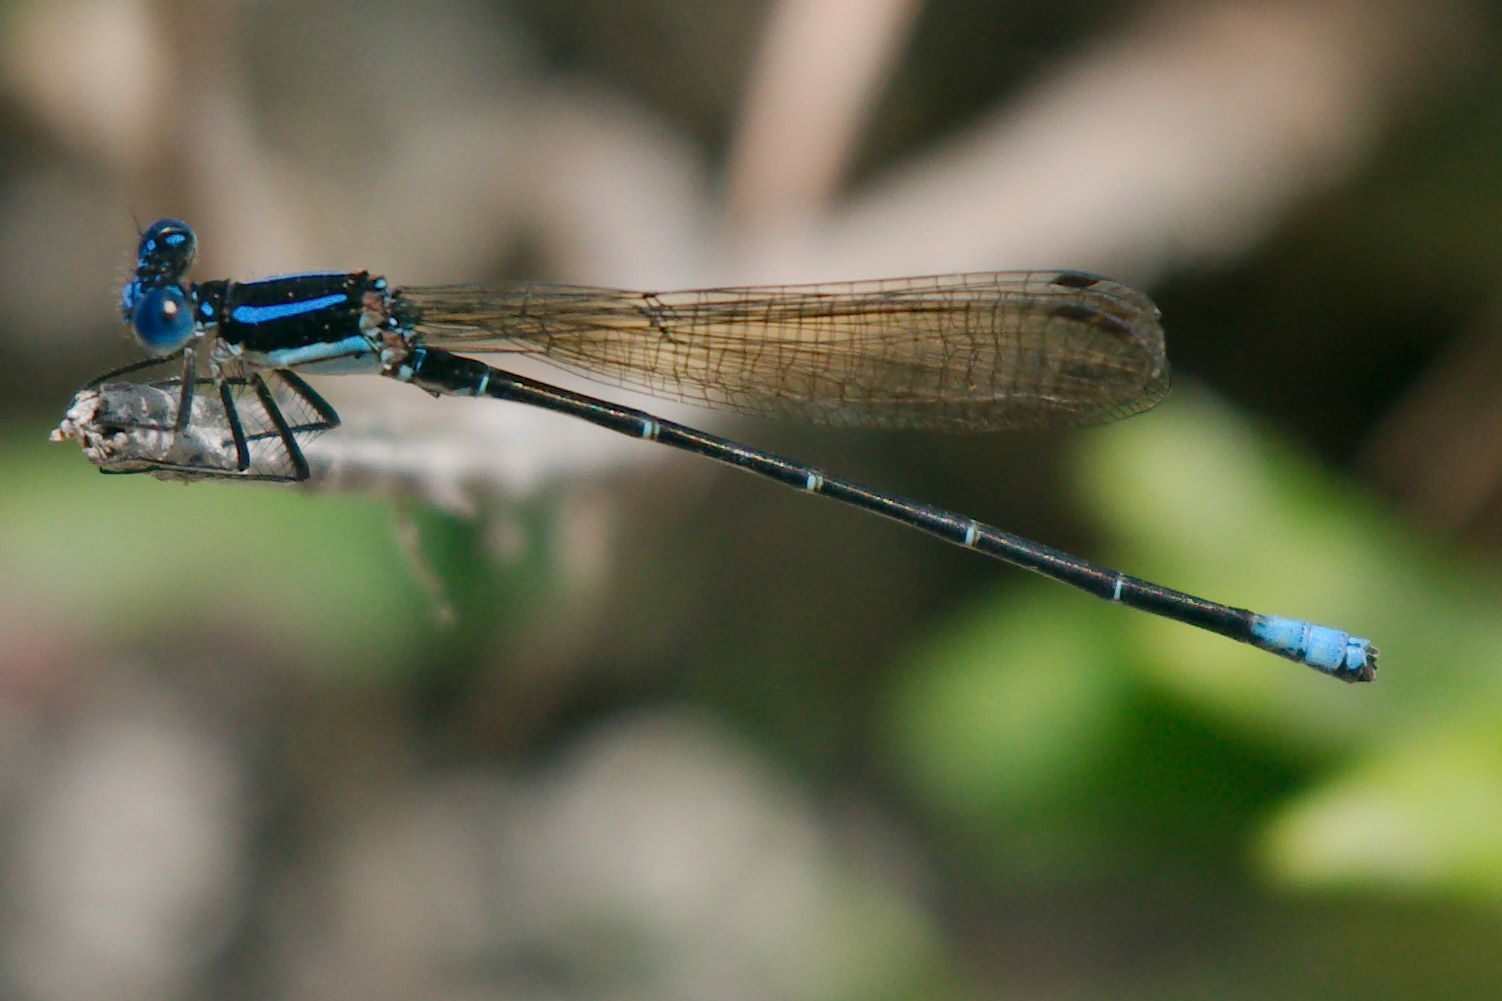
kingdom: Animalia
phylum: Arthropoda
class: Insecta
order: Odonata
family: Coenagrionidae
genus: Argia
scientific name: Argia sedula
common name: Blue-ringed dancer
